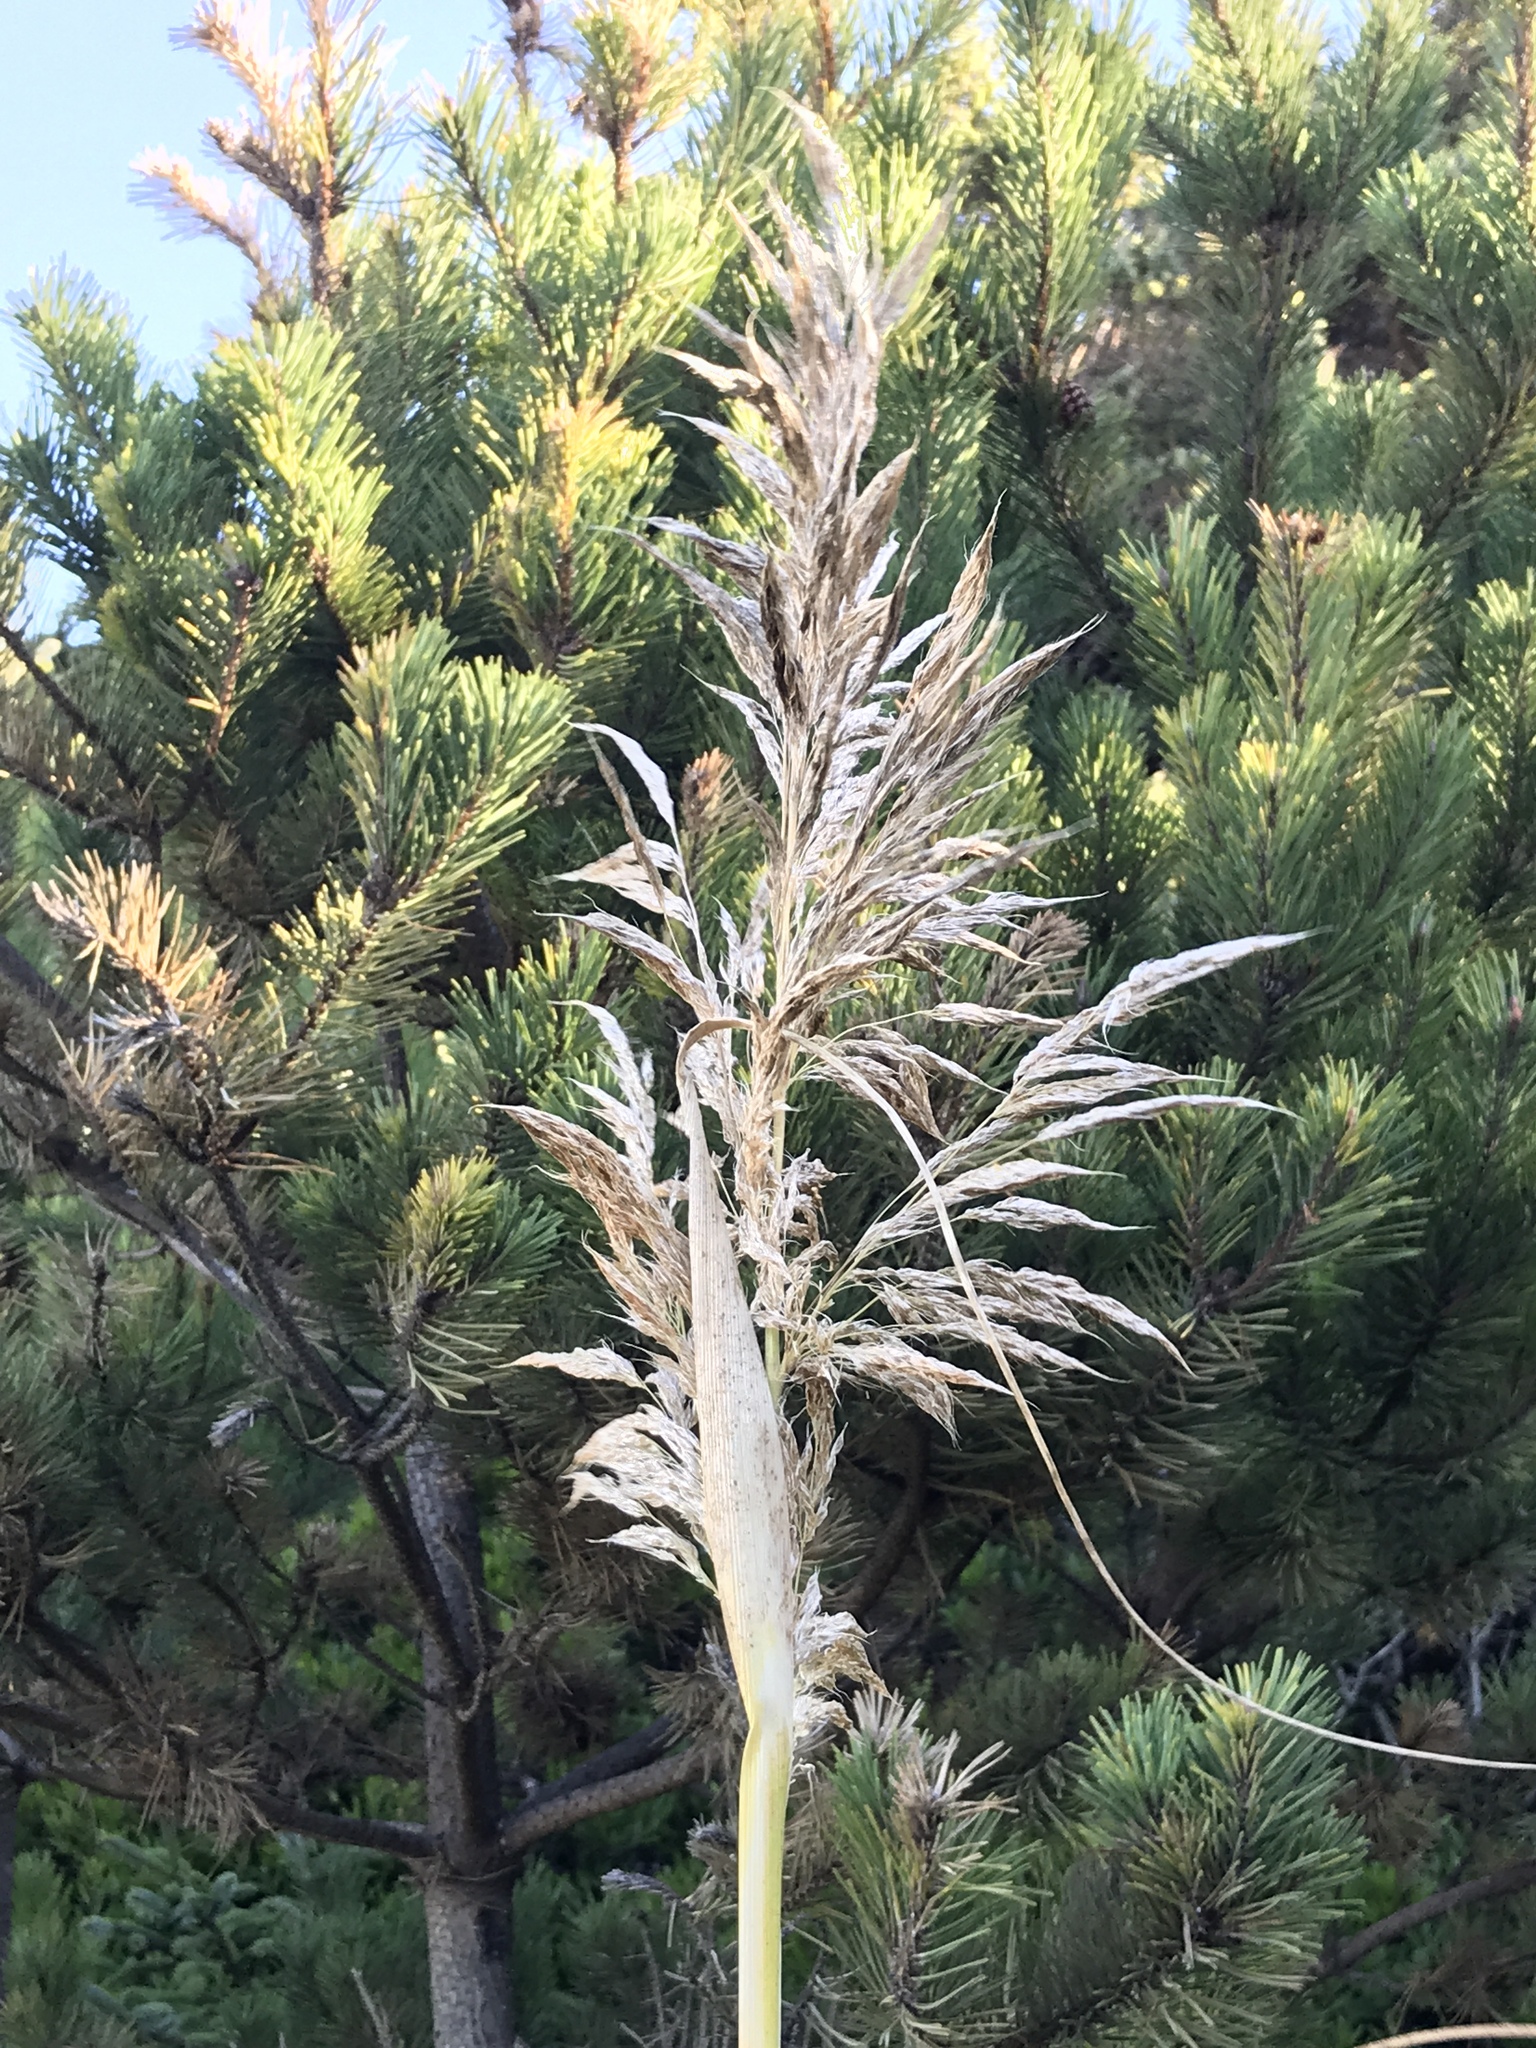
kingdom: Plantae
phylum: Tracheophyta
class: Liliopsida
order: Poales
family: Poaceae
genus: Calamagrostis
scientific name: Calamagrostis nutkaensis
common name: Pacific reed grass
